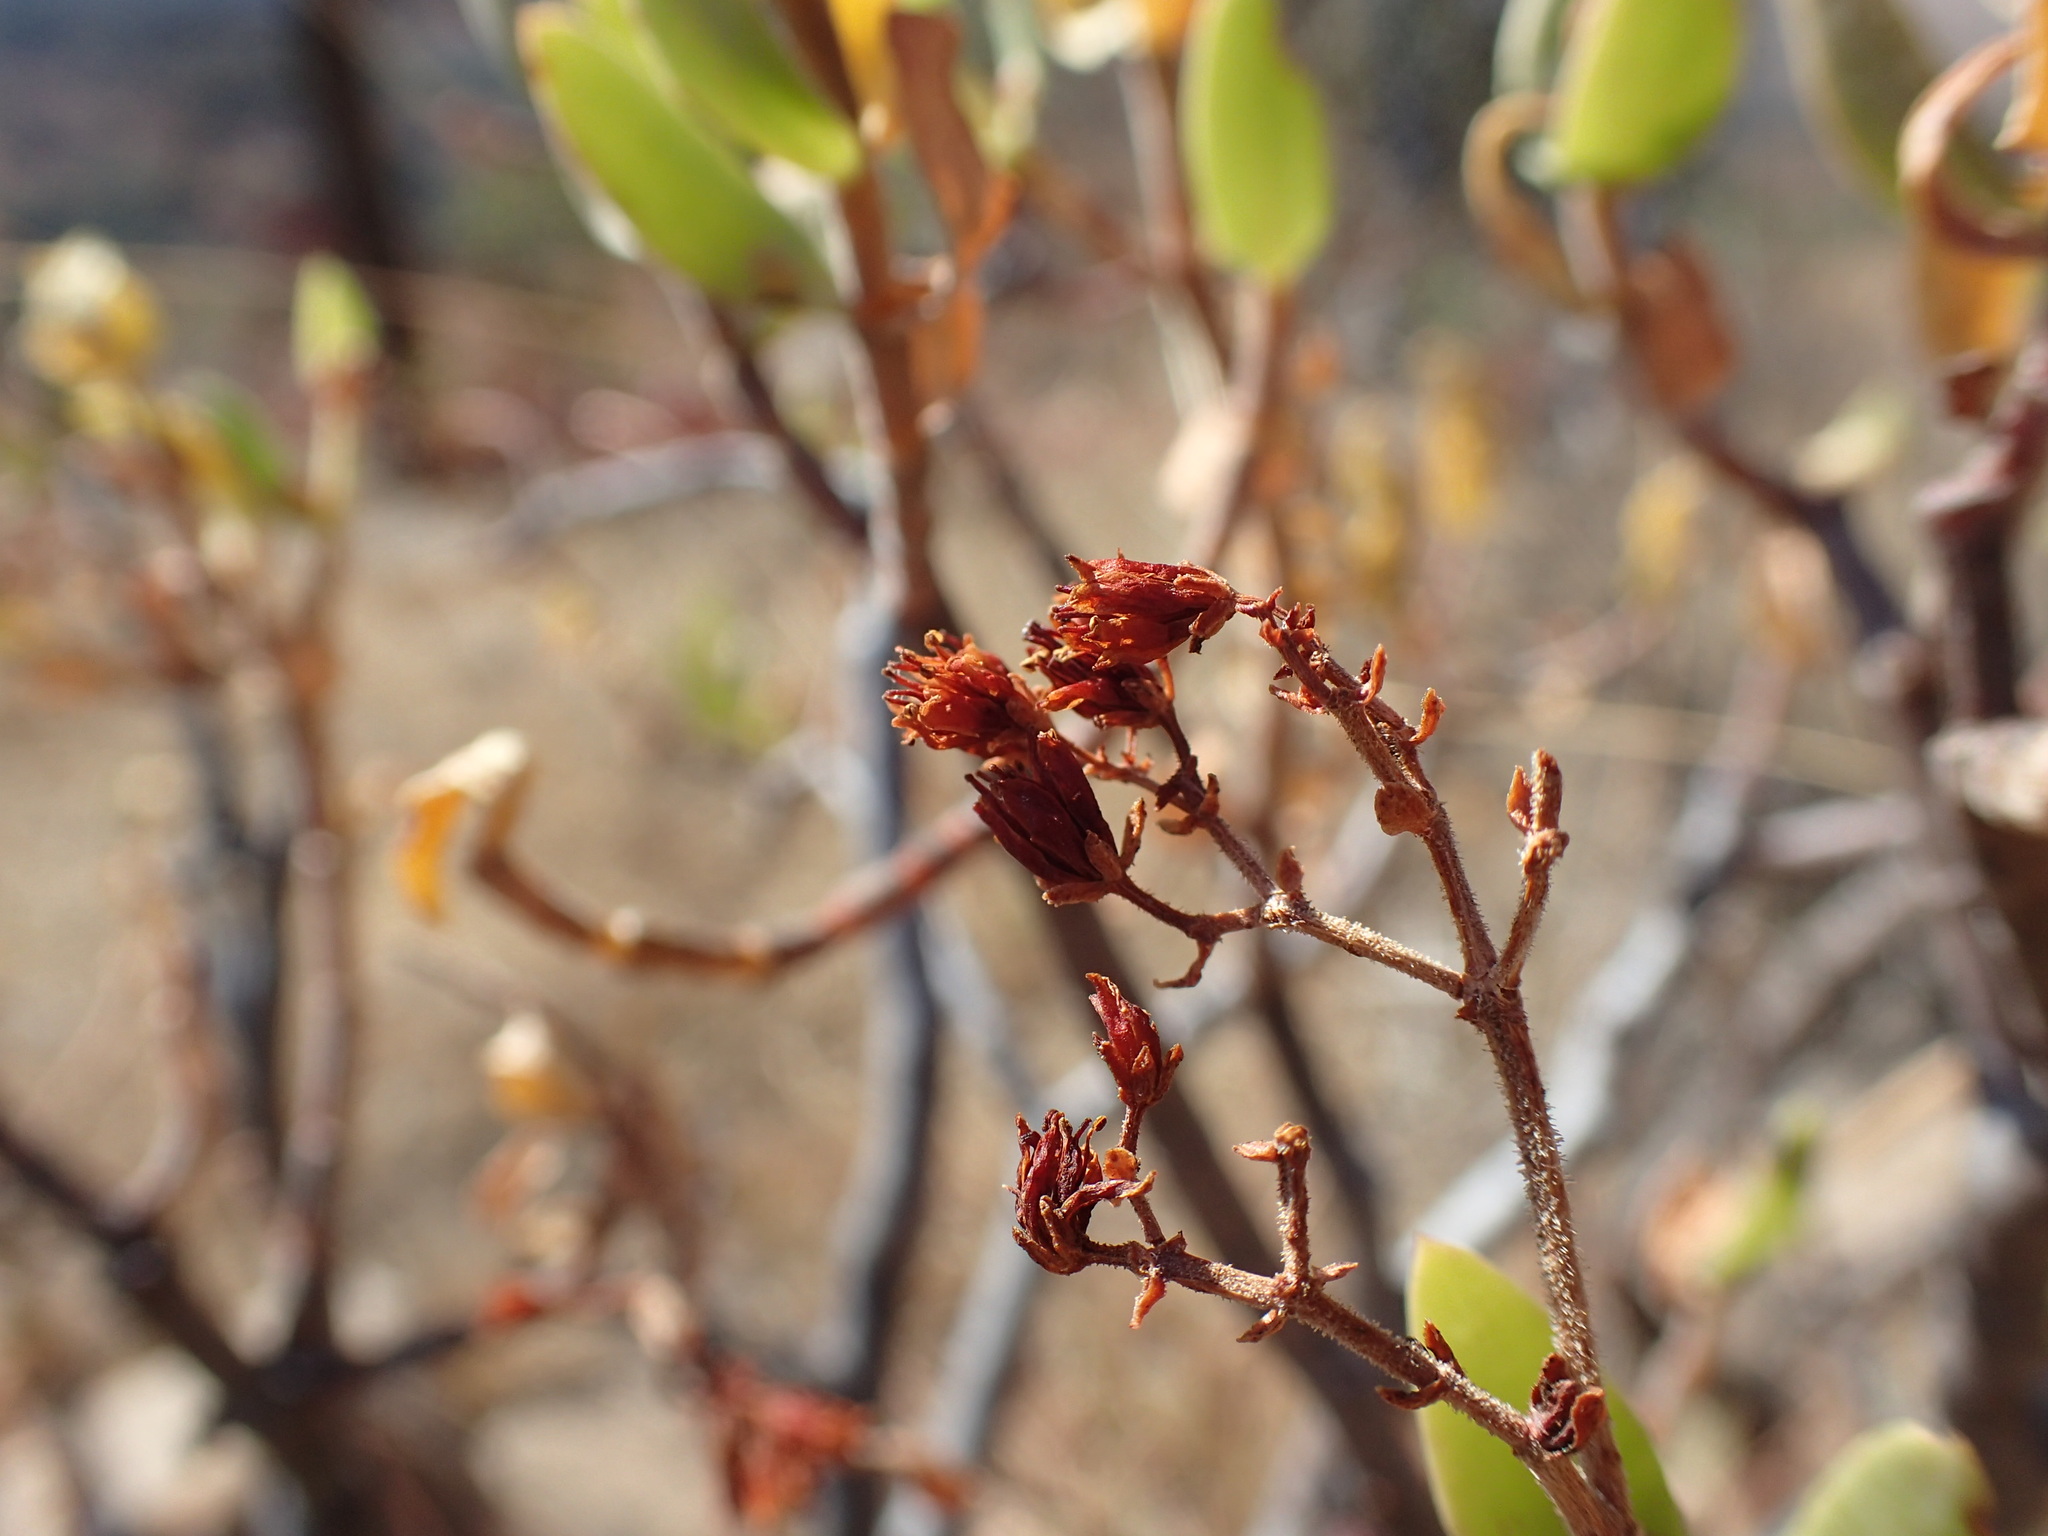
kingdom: Plantae
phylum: Tracheophyta
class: Magnoliopsida
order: Saxifragales
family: Crassulaceae
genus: Crassula
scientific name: Crassula sarcocaulis
